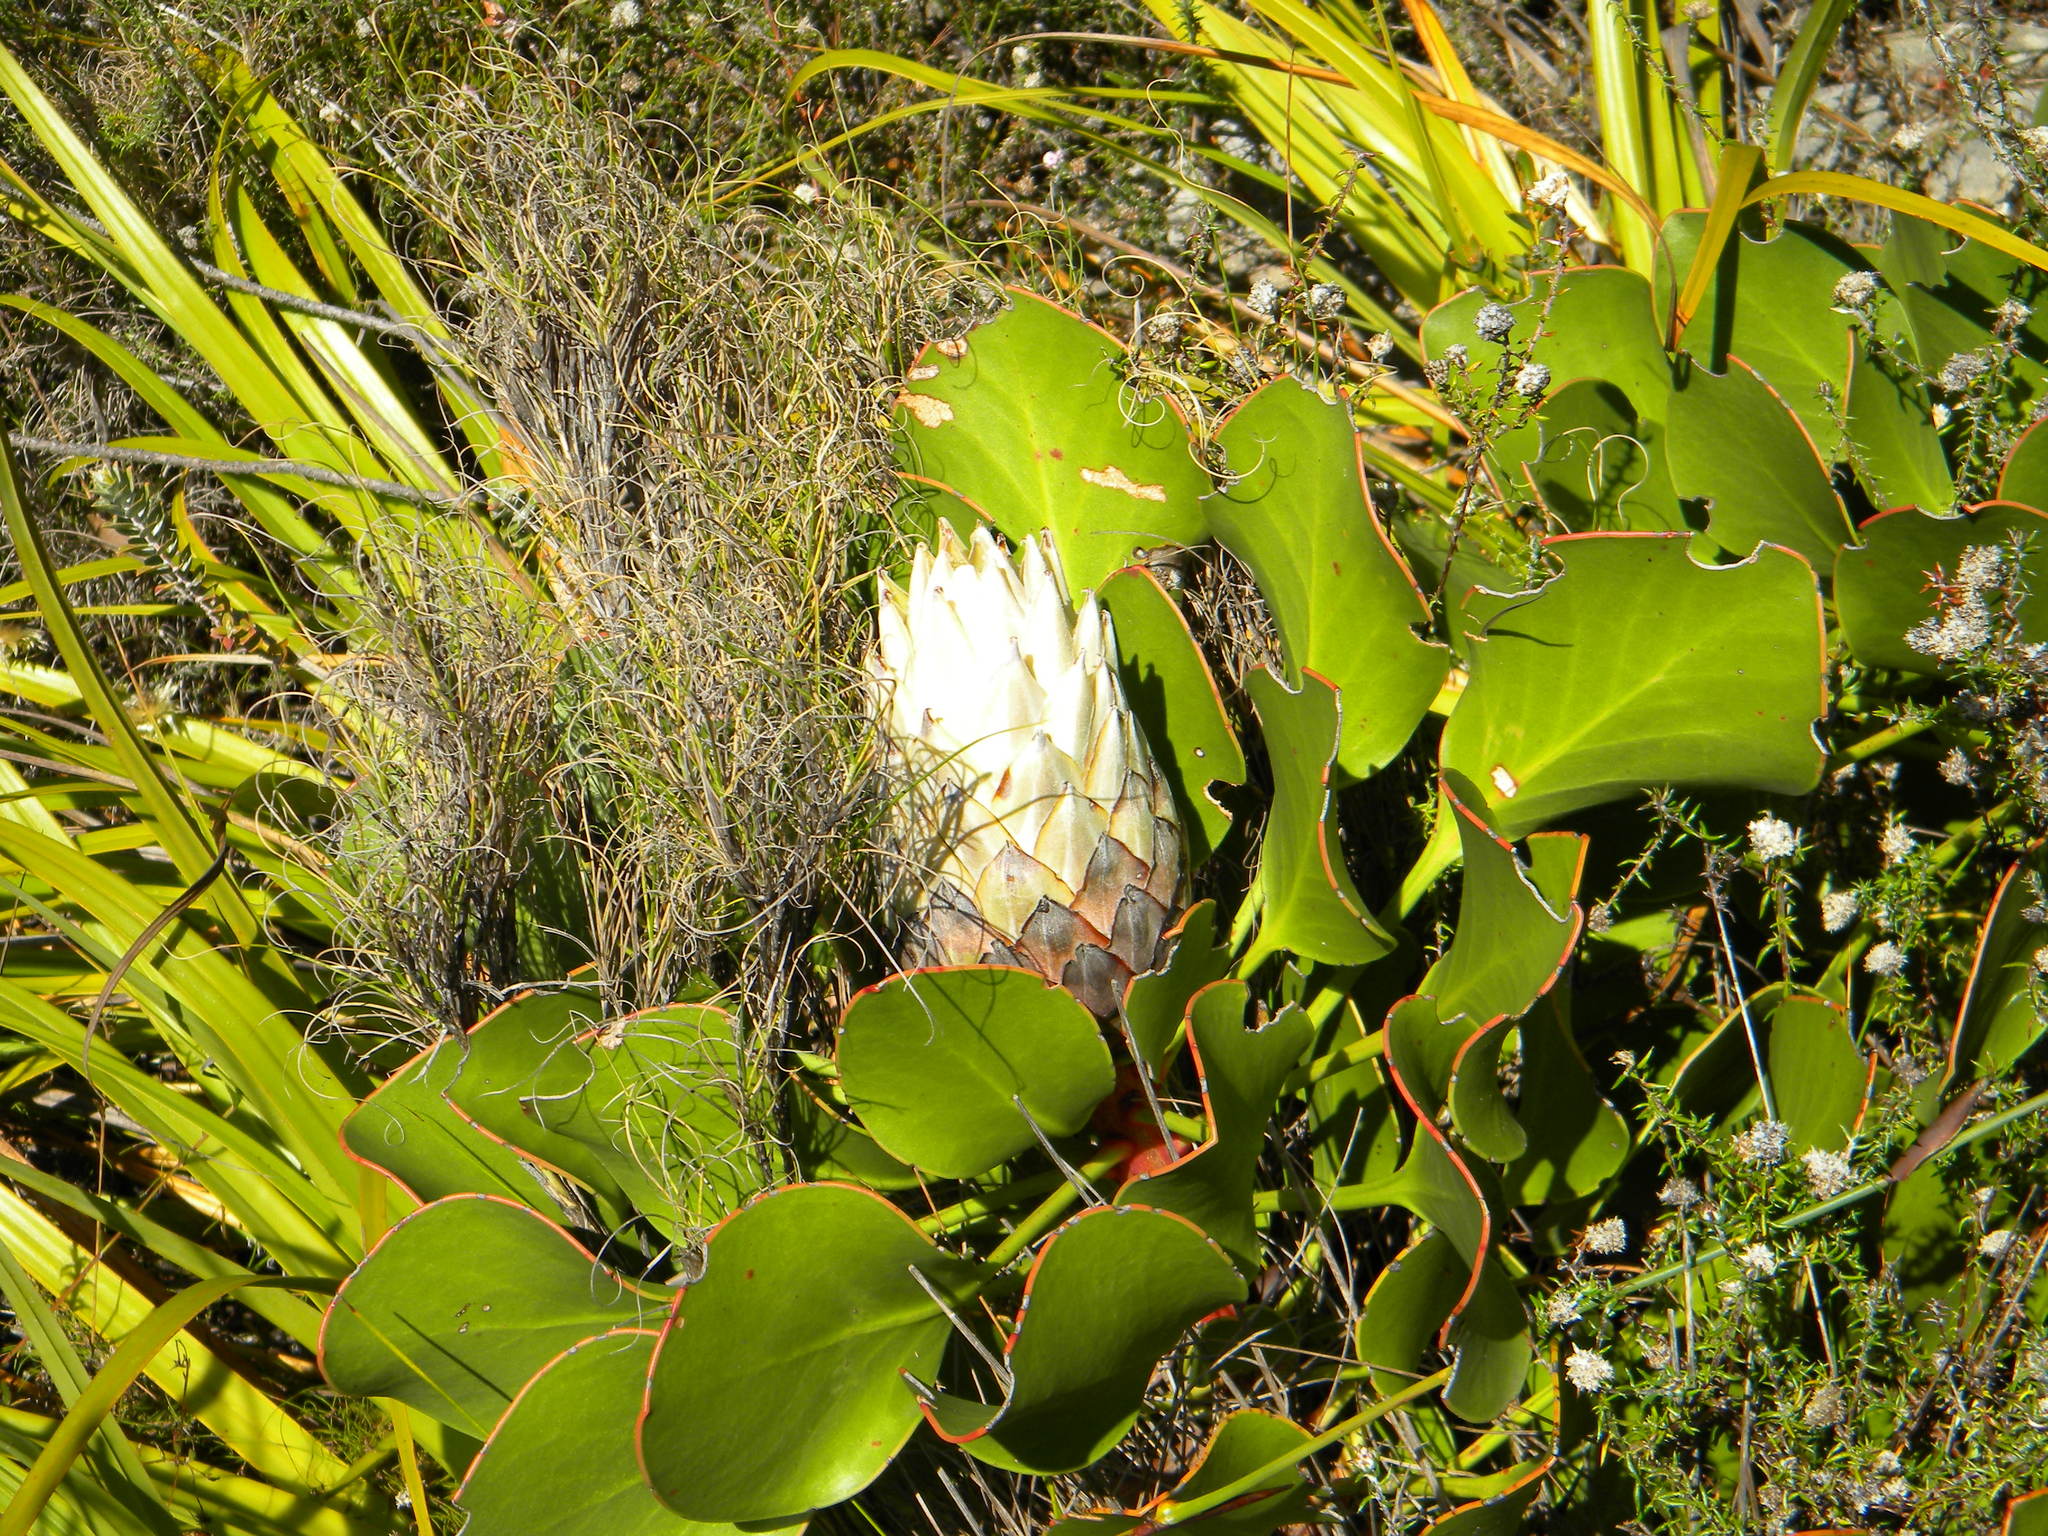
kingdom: Plantae
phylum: Tracheophyta
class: Magnoliopsida
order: Proteales
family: Proteaceae
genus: Protea
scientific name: Protea cynaroides
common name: King protea
